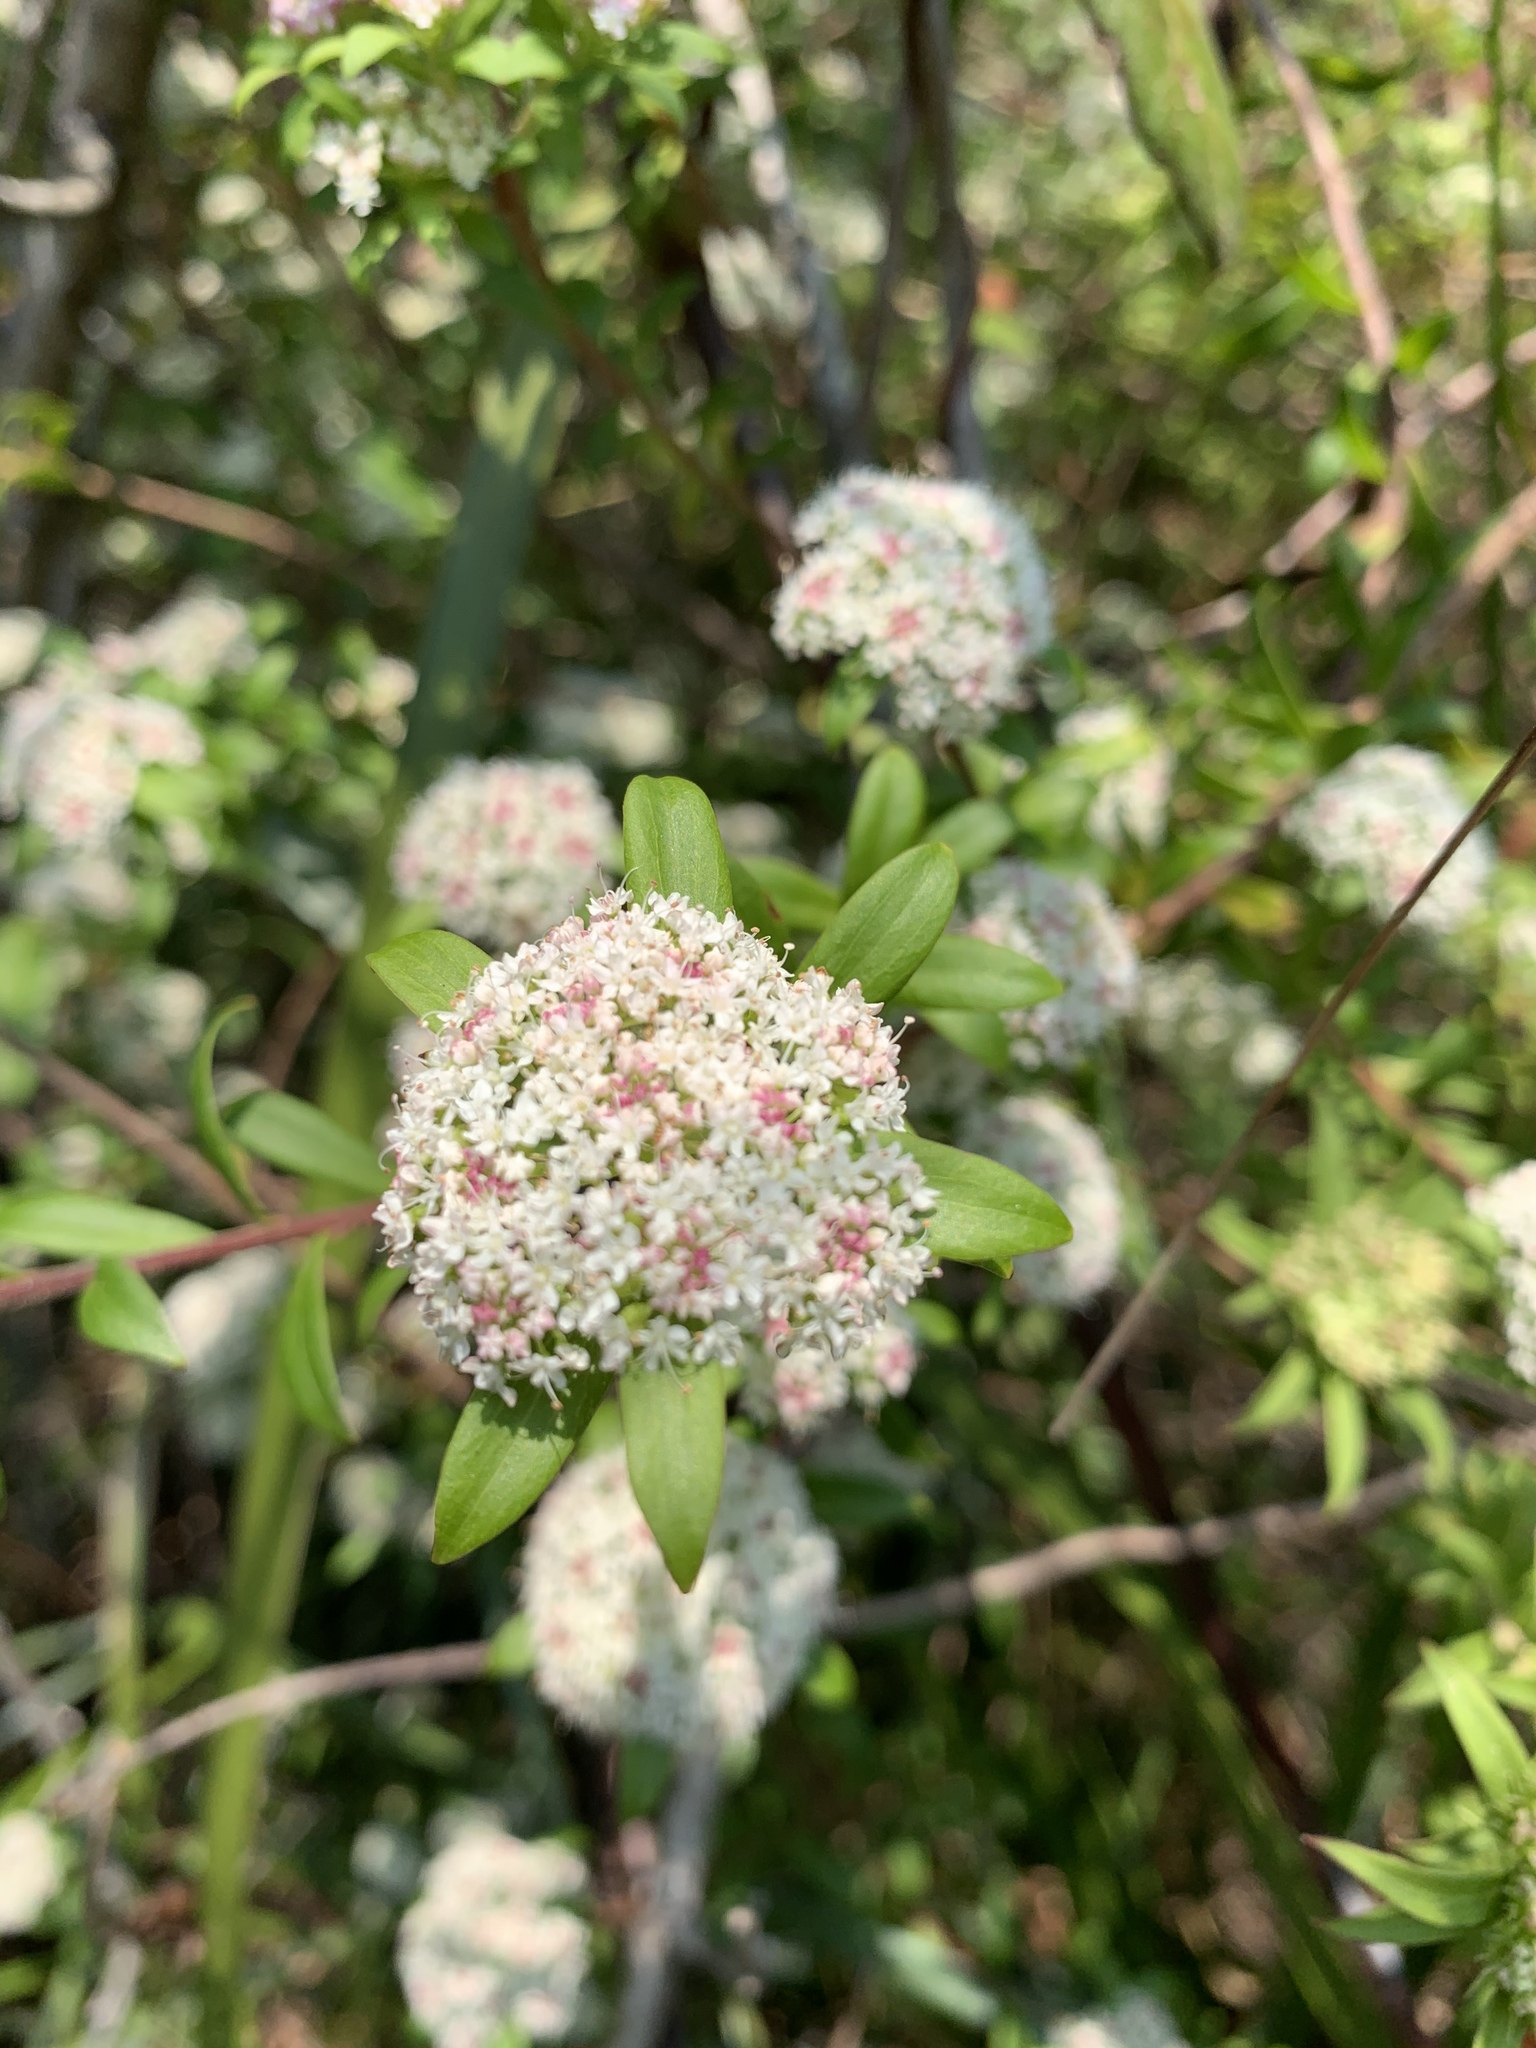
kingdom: Plantae
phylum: Tracheophyta
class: Magnoliopsida
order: Apiales
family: Apiaceae
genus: Platysace
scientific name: Platysace lanceolata
